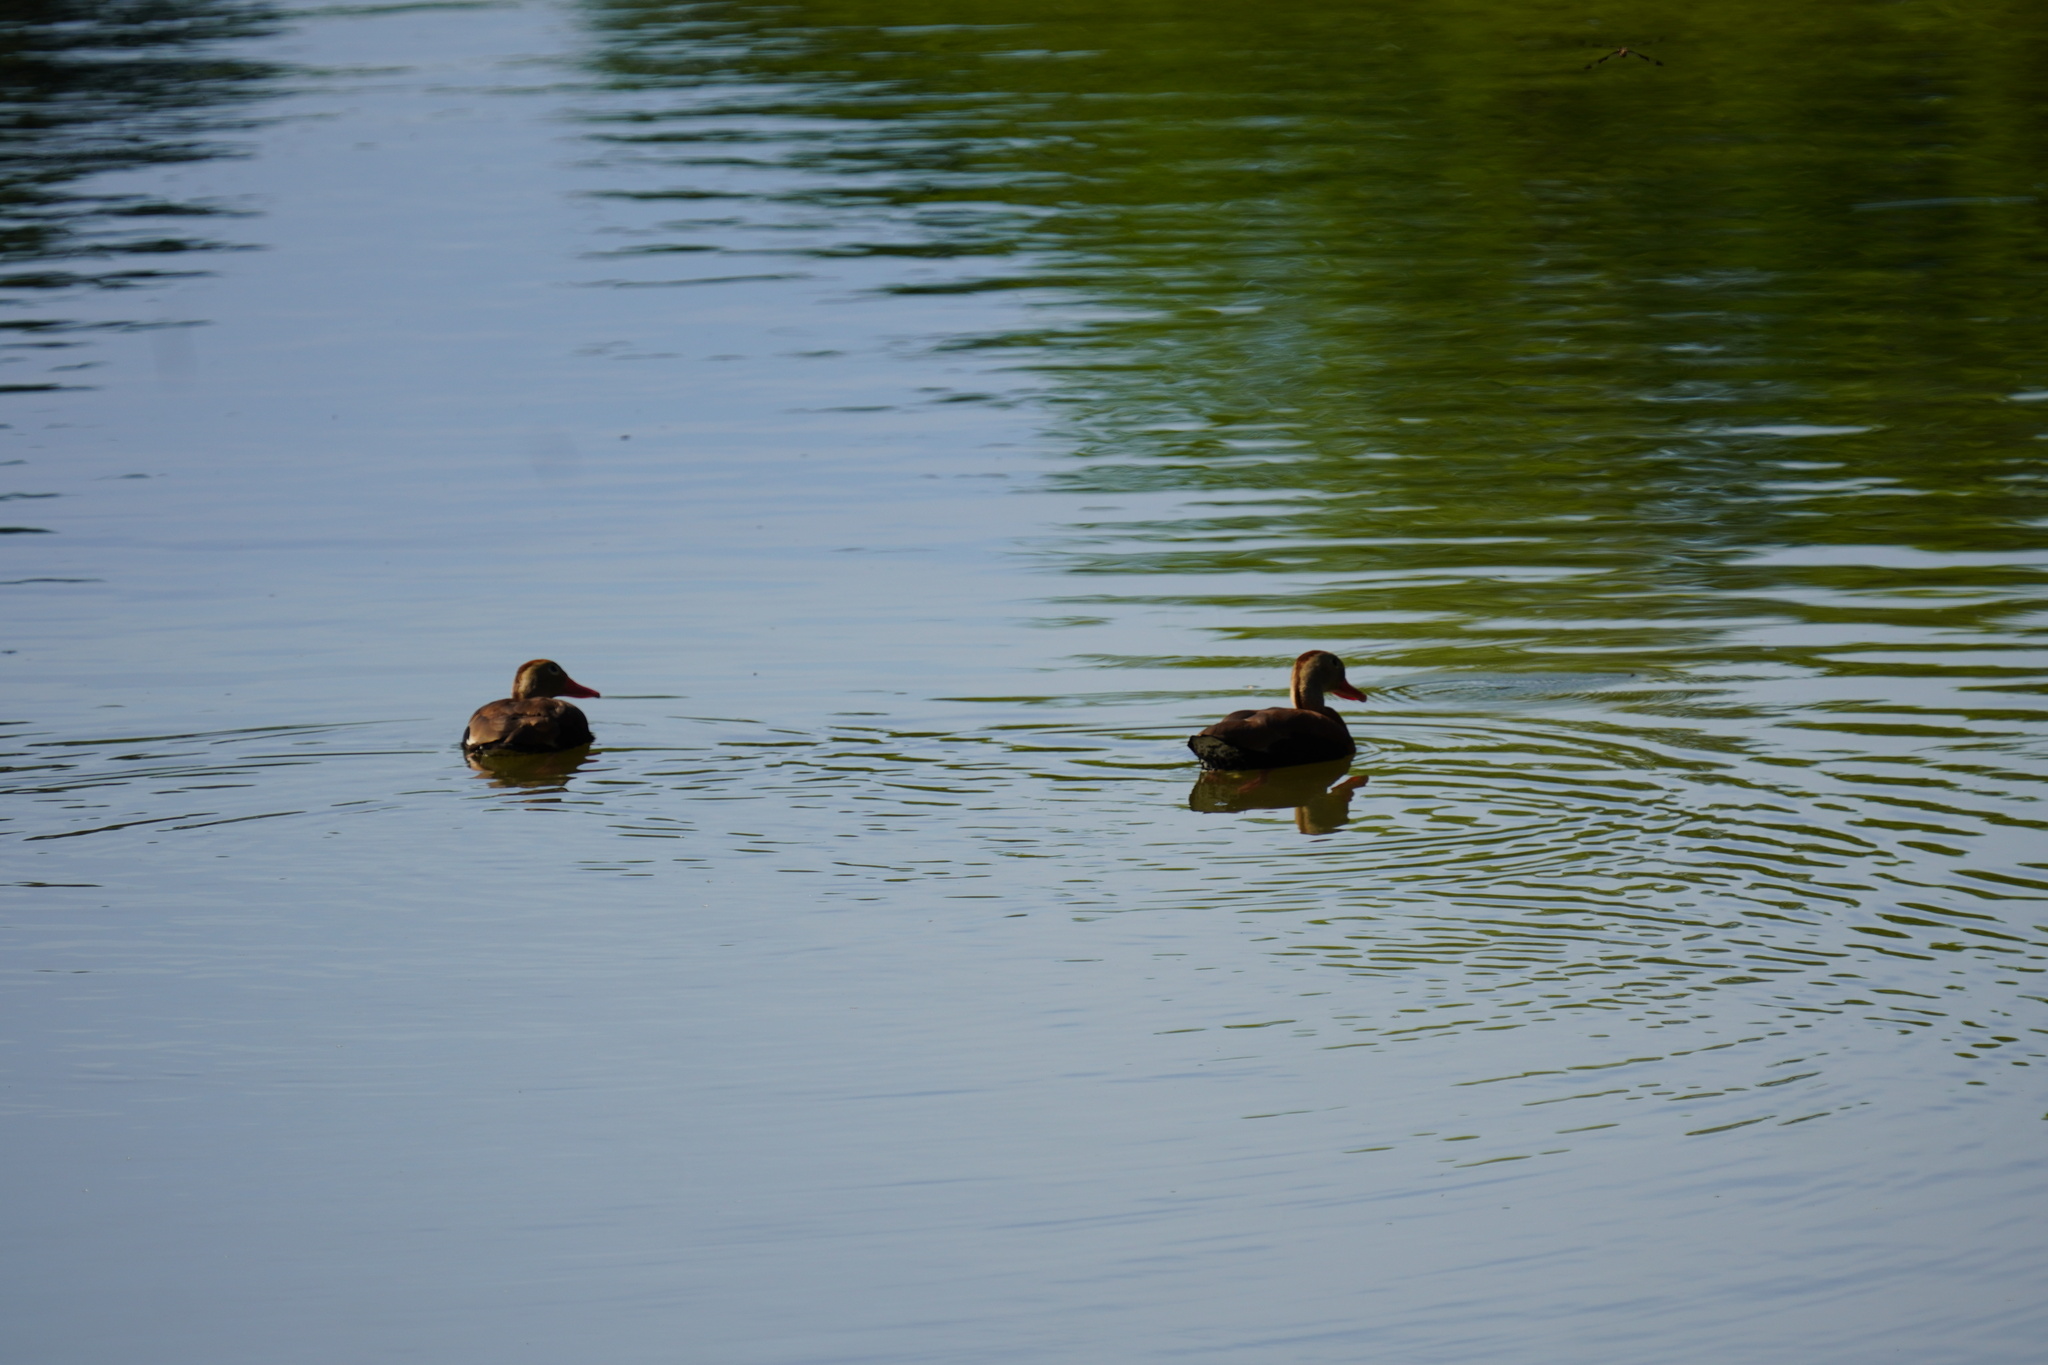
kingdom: Animalia
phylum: Chordata
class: Aves
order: Anseriformes
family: Anatidae
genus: Anas
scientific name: Anas platyrhynchos
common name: Mallard
